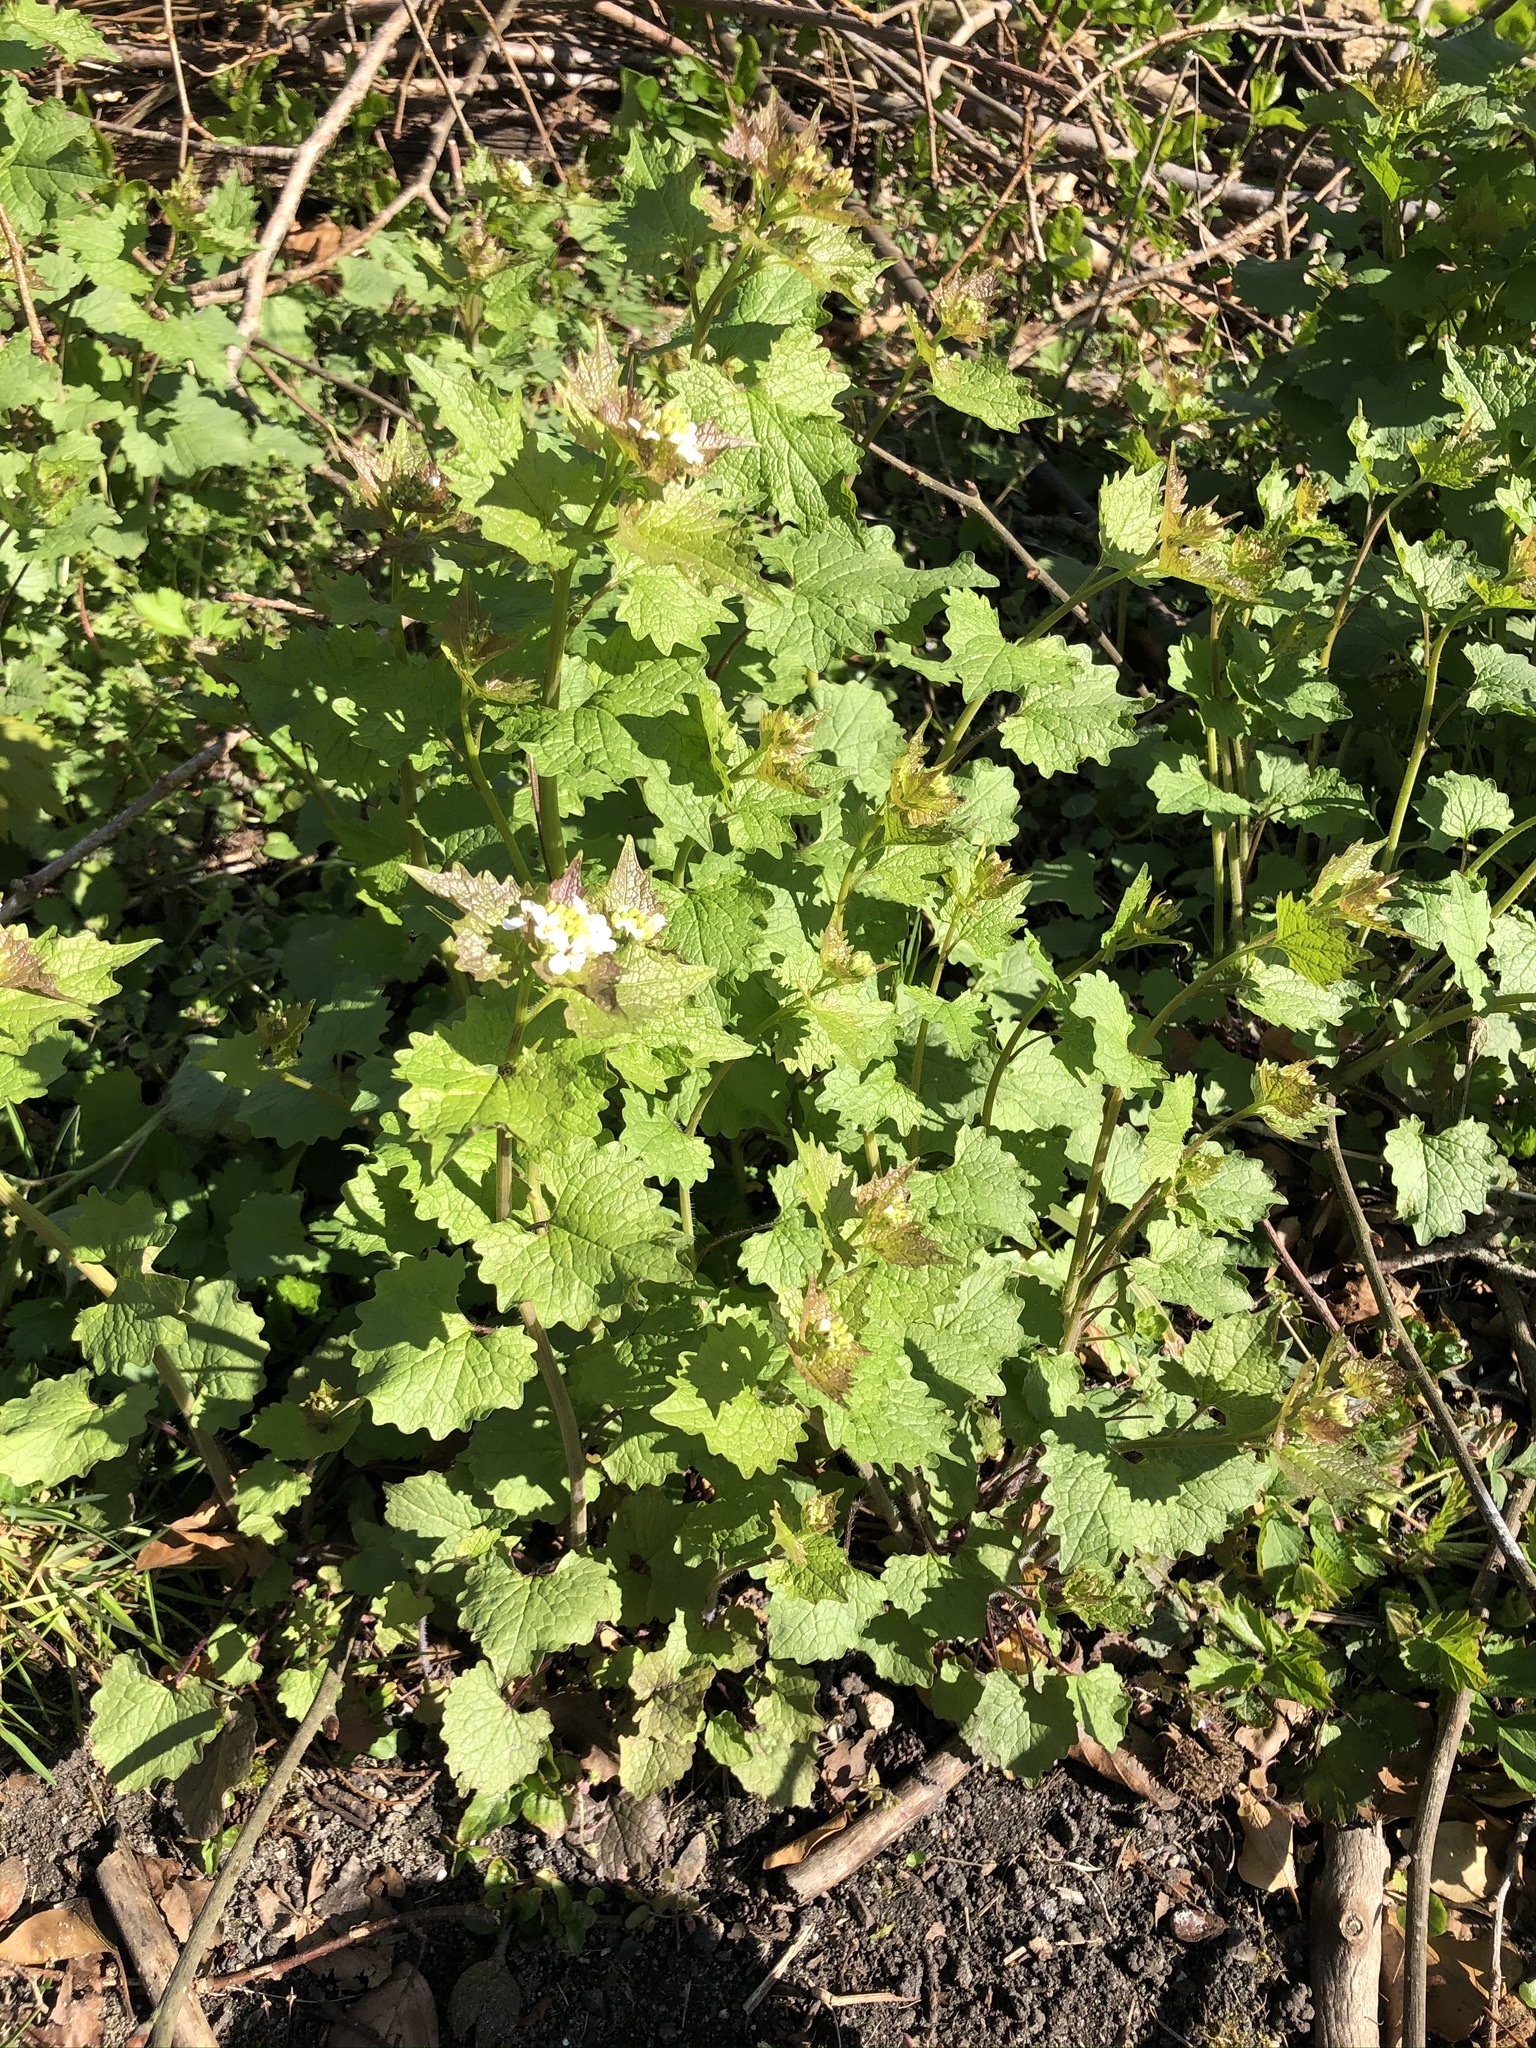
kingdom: Plantae
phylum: Tracheophyta
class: Magnoliopsida
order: Brassicales
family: Brassicaceae
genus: Alliaria
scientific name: Alliaria petiolata
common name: Garlic mustard
